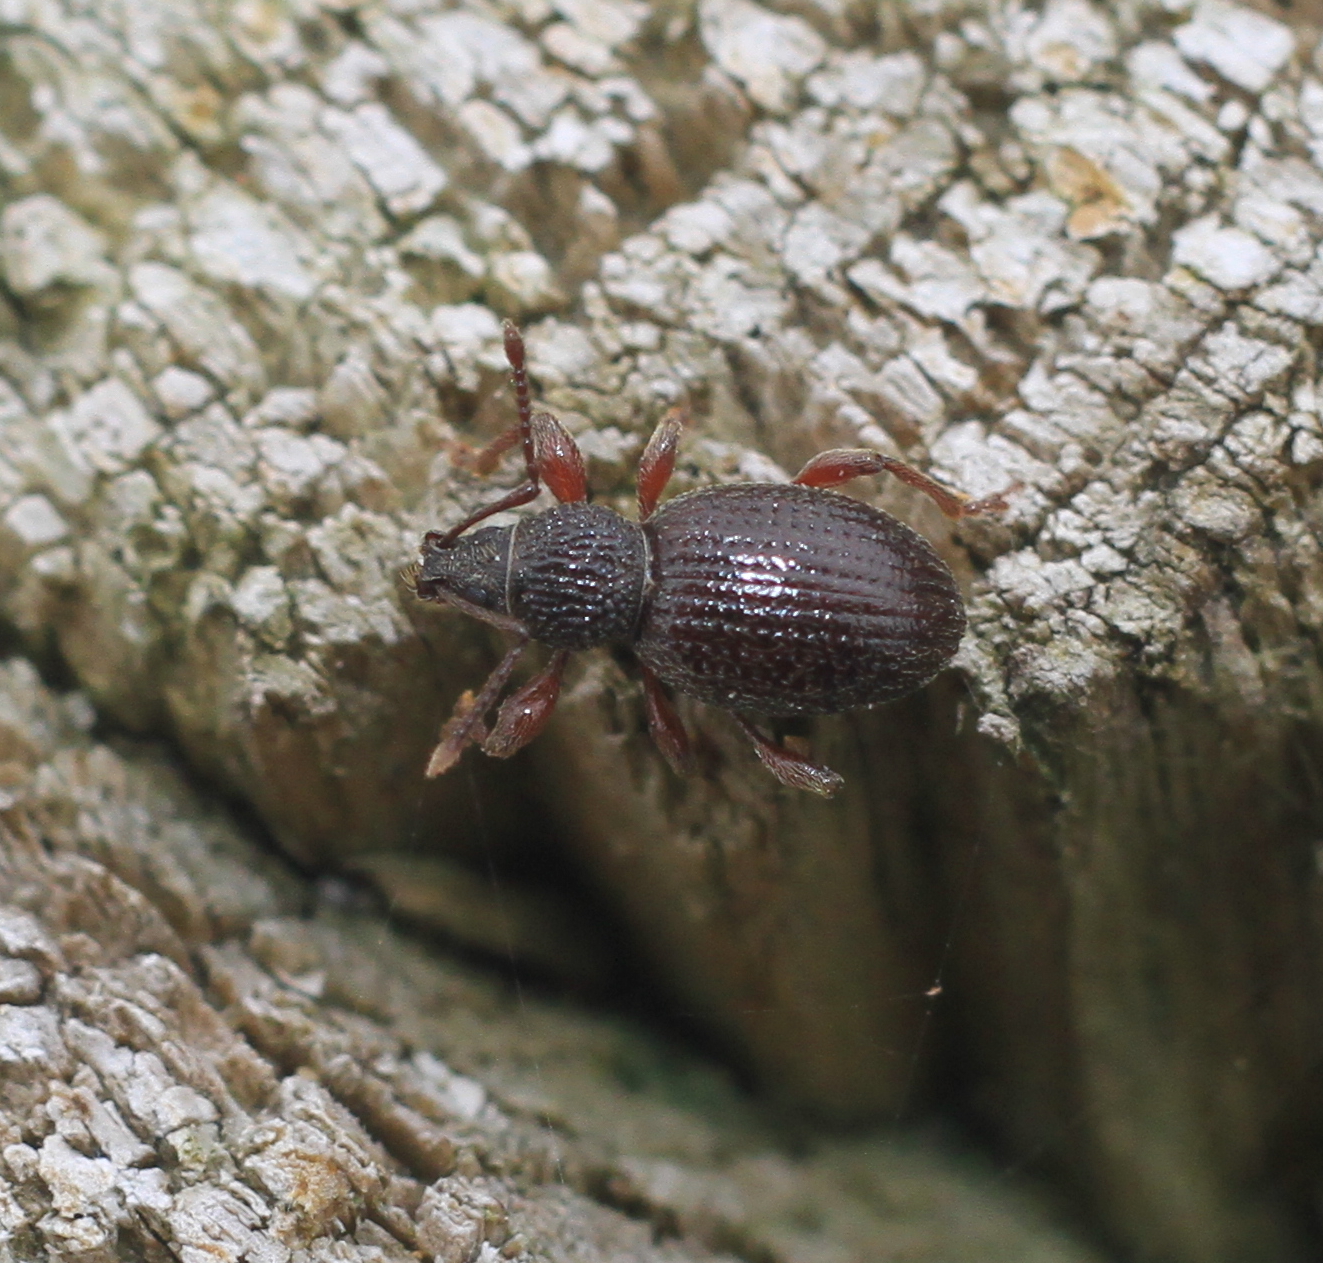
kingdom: Animalia
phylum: Arthropoda
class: Insecta
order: Coleoptera
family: Curculionidae
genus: Otiorhynchus
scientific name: Otiorhynchus ovatus
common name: Strawberry root weevil
